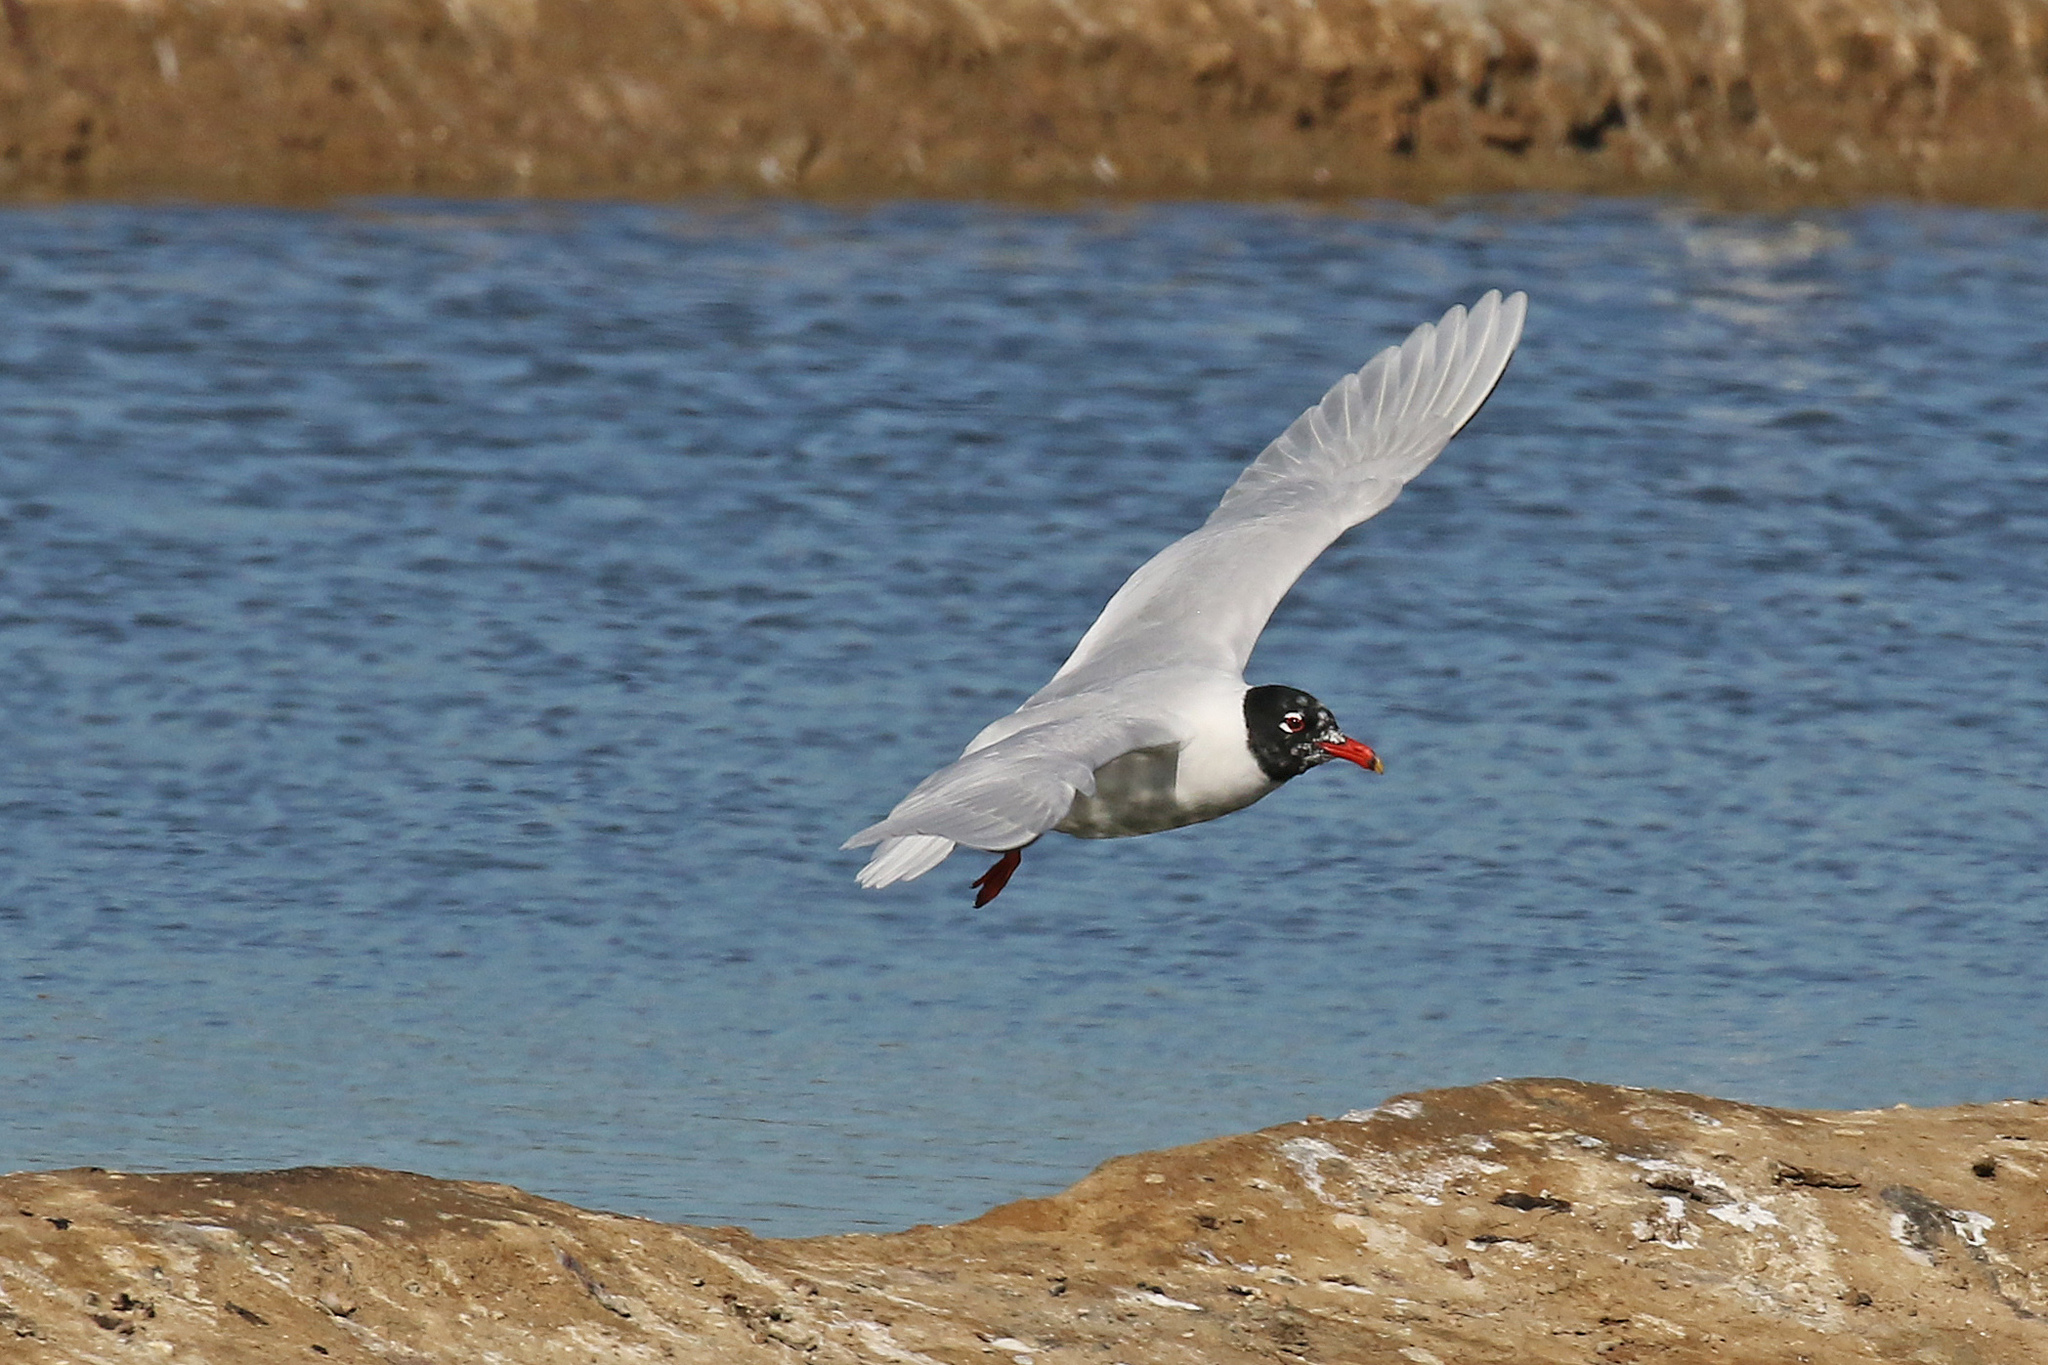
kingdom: Animalia
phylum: Chordata
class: Aves
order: Charadriiformes
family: Laridae
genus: Ichthyaetus
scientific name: Ichthyaetus melanocephalus
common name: Mediterranean gull
